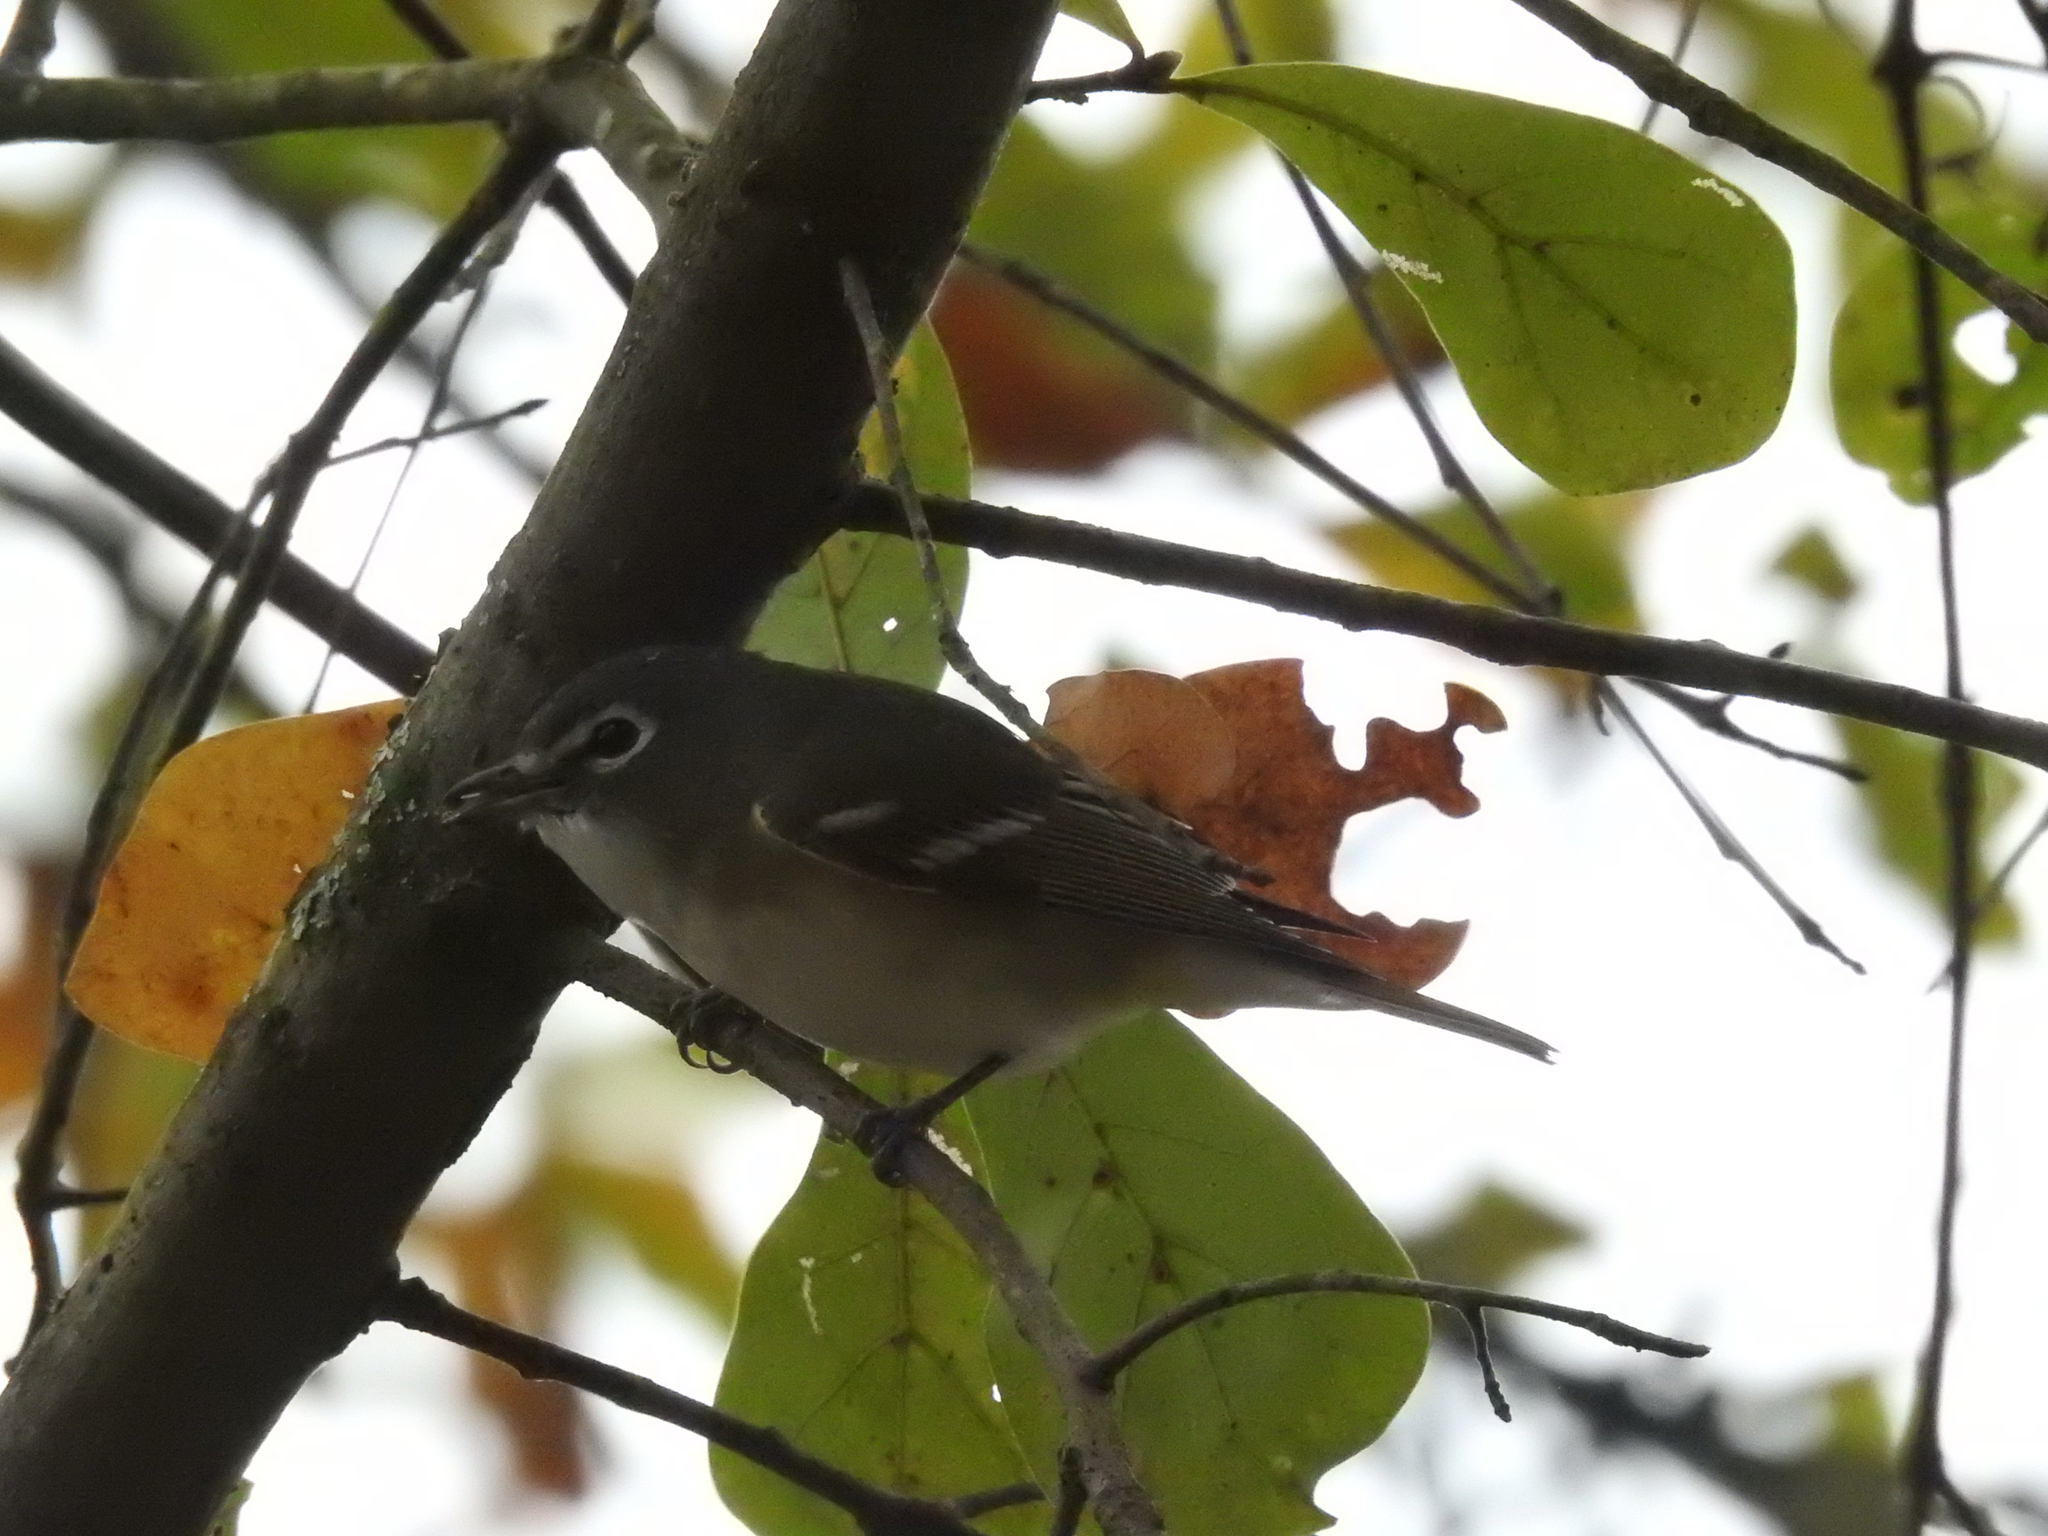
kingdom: Animalia
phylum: Chordata
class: Aves
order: Passeriformes
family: Vireonidae
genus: Vireo
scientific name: Vireo solitarius
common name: Blue-headed vireo
